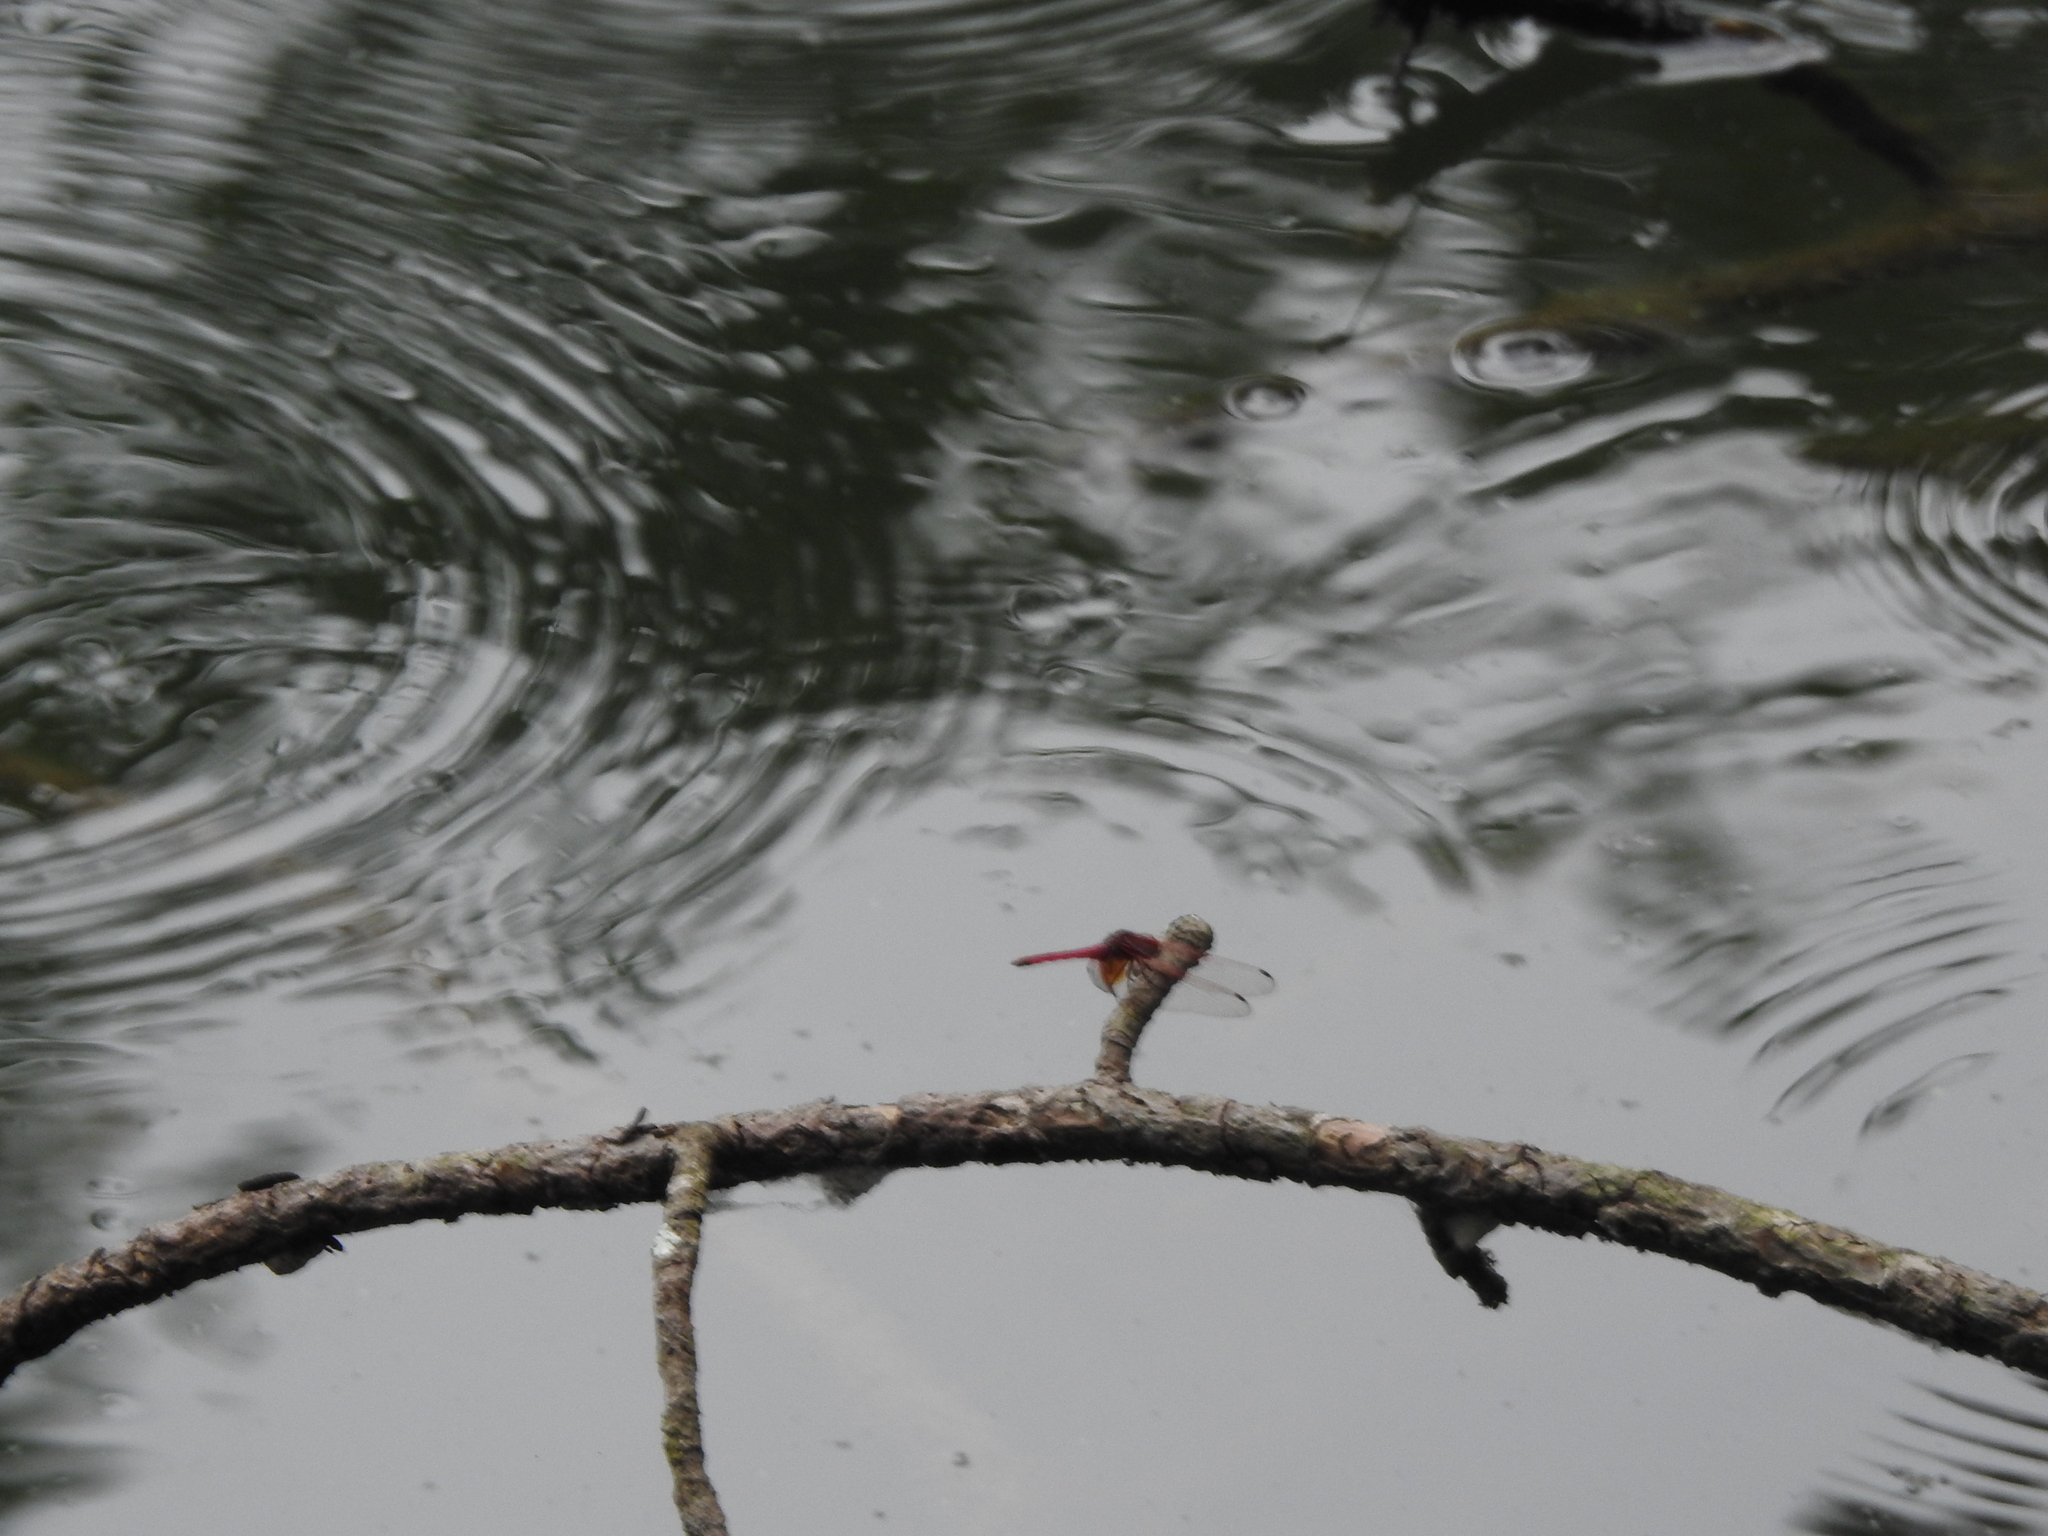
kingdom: Animalia
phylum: Arthropoda
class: Insecta
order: Odonata
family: Libellulidae
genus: Trithemis
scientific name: Trithemis aurora
